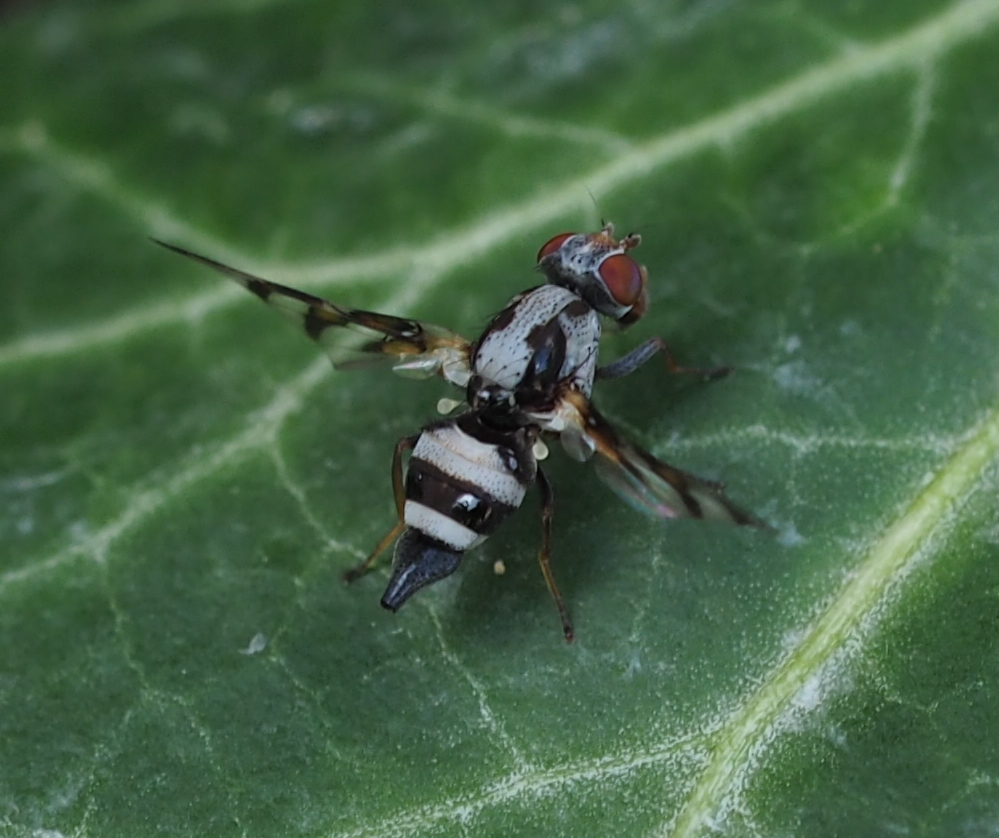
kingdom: Animalia
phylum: Arthropoda
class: Insecta
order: Diptera
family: Ulidiidae
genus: Myennis
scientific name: Myennis octopunctata
